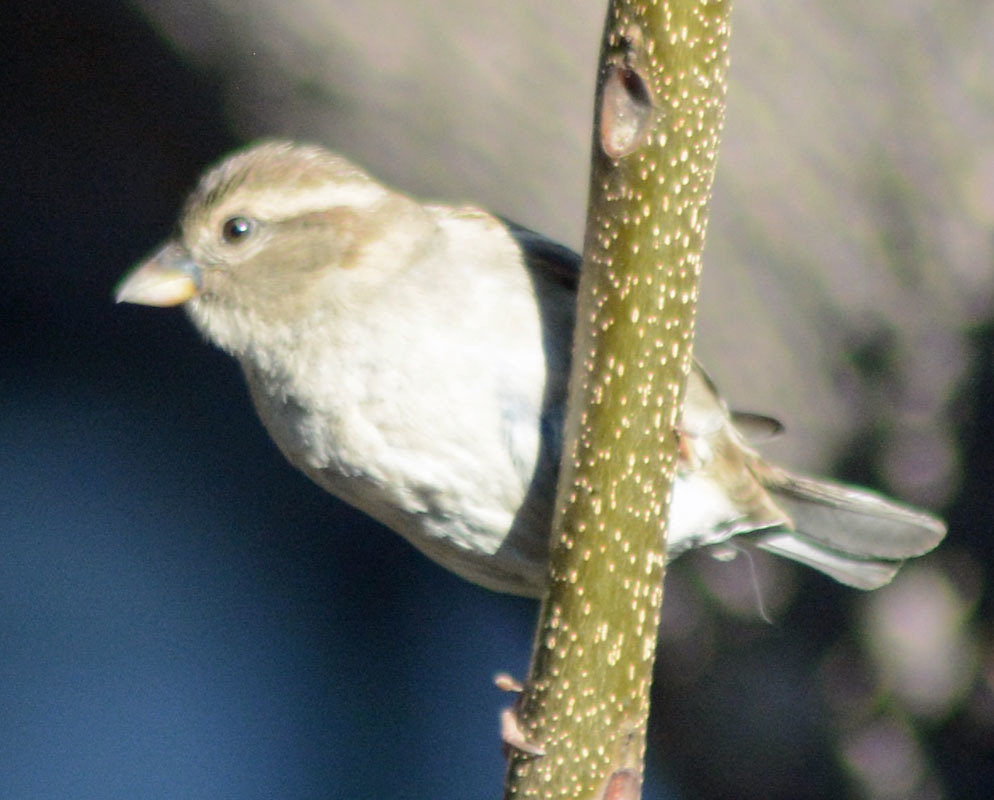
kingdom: Animalia
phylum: Chordata
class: Aves
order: Passeriformes
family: Passeridae
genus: Passer
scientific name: Passer domesticus
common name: House sparrow
